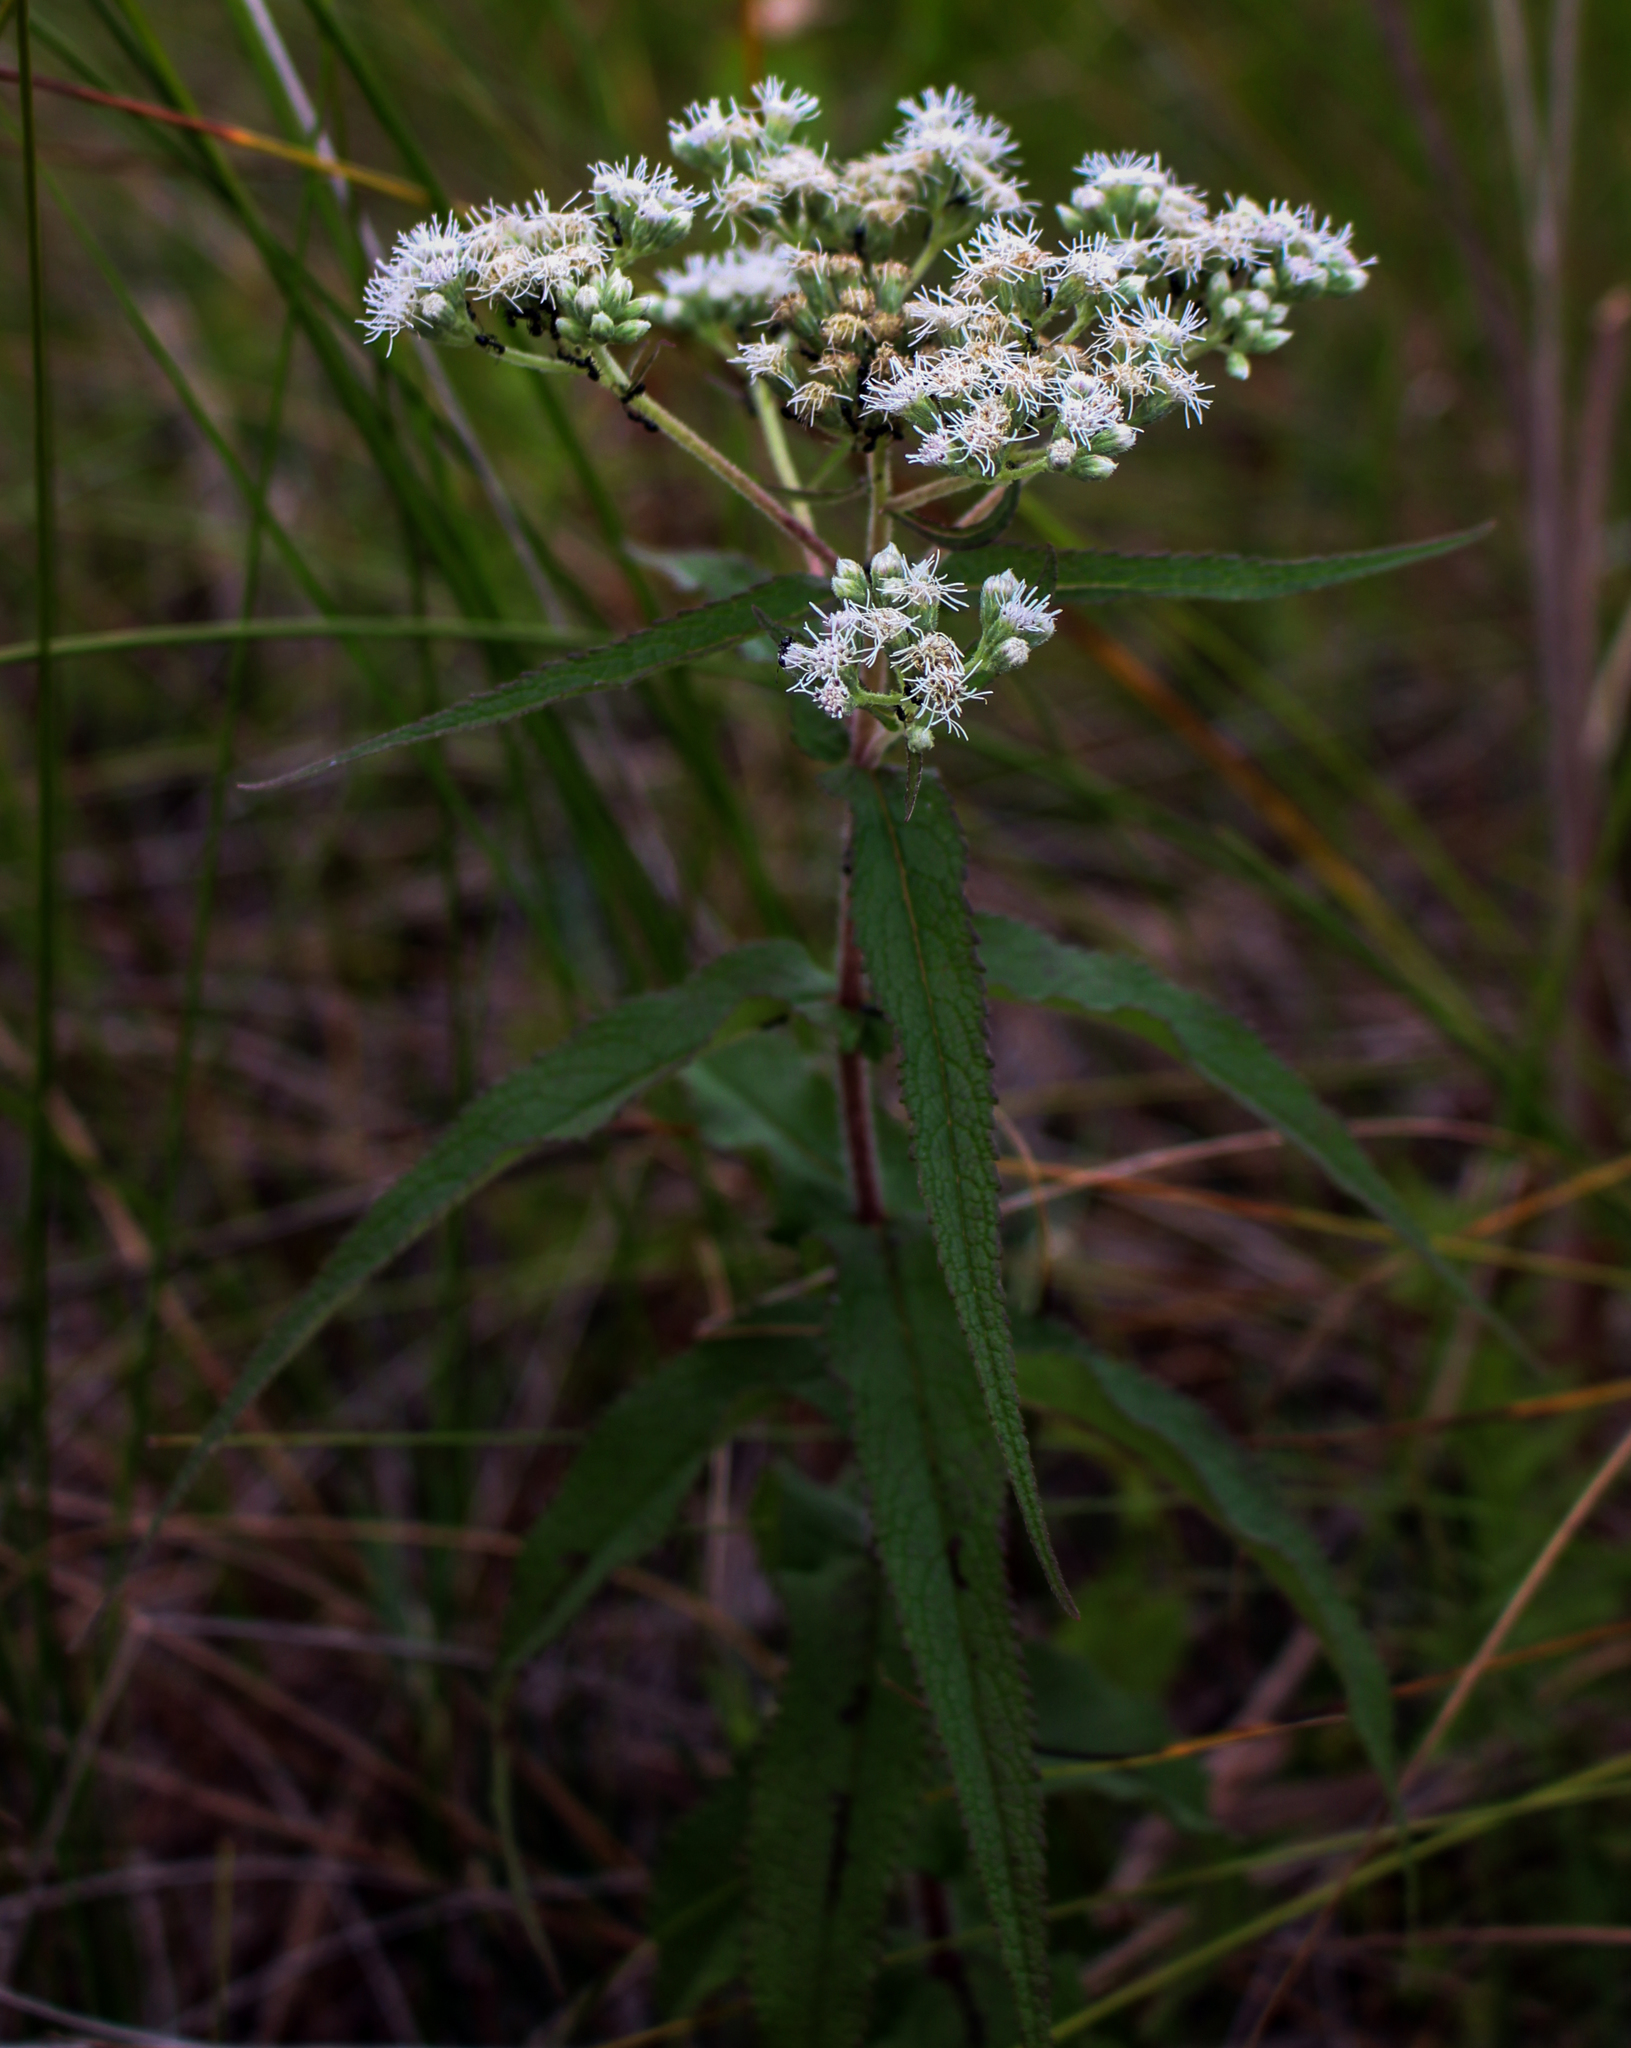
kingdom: Plantae
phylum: Tracheophyta
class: Magnoliopsida
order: Asterales
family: Asteraceae
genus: Eupatorium
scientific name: Eupatorium perfoliatum
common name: Boneset
